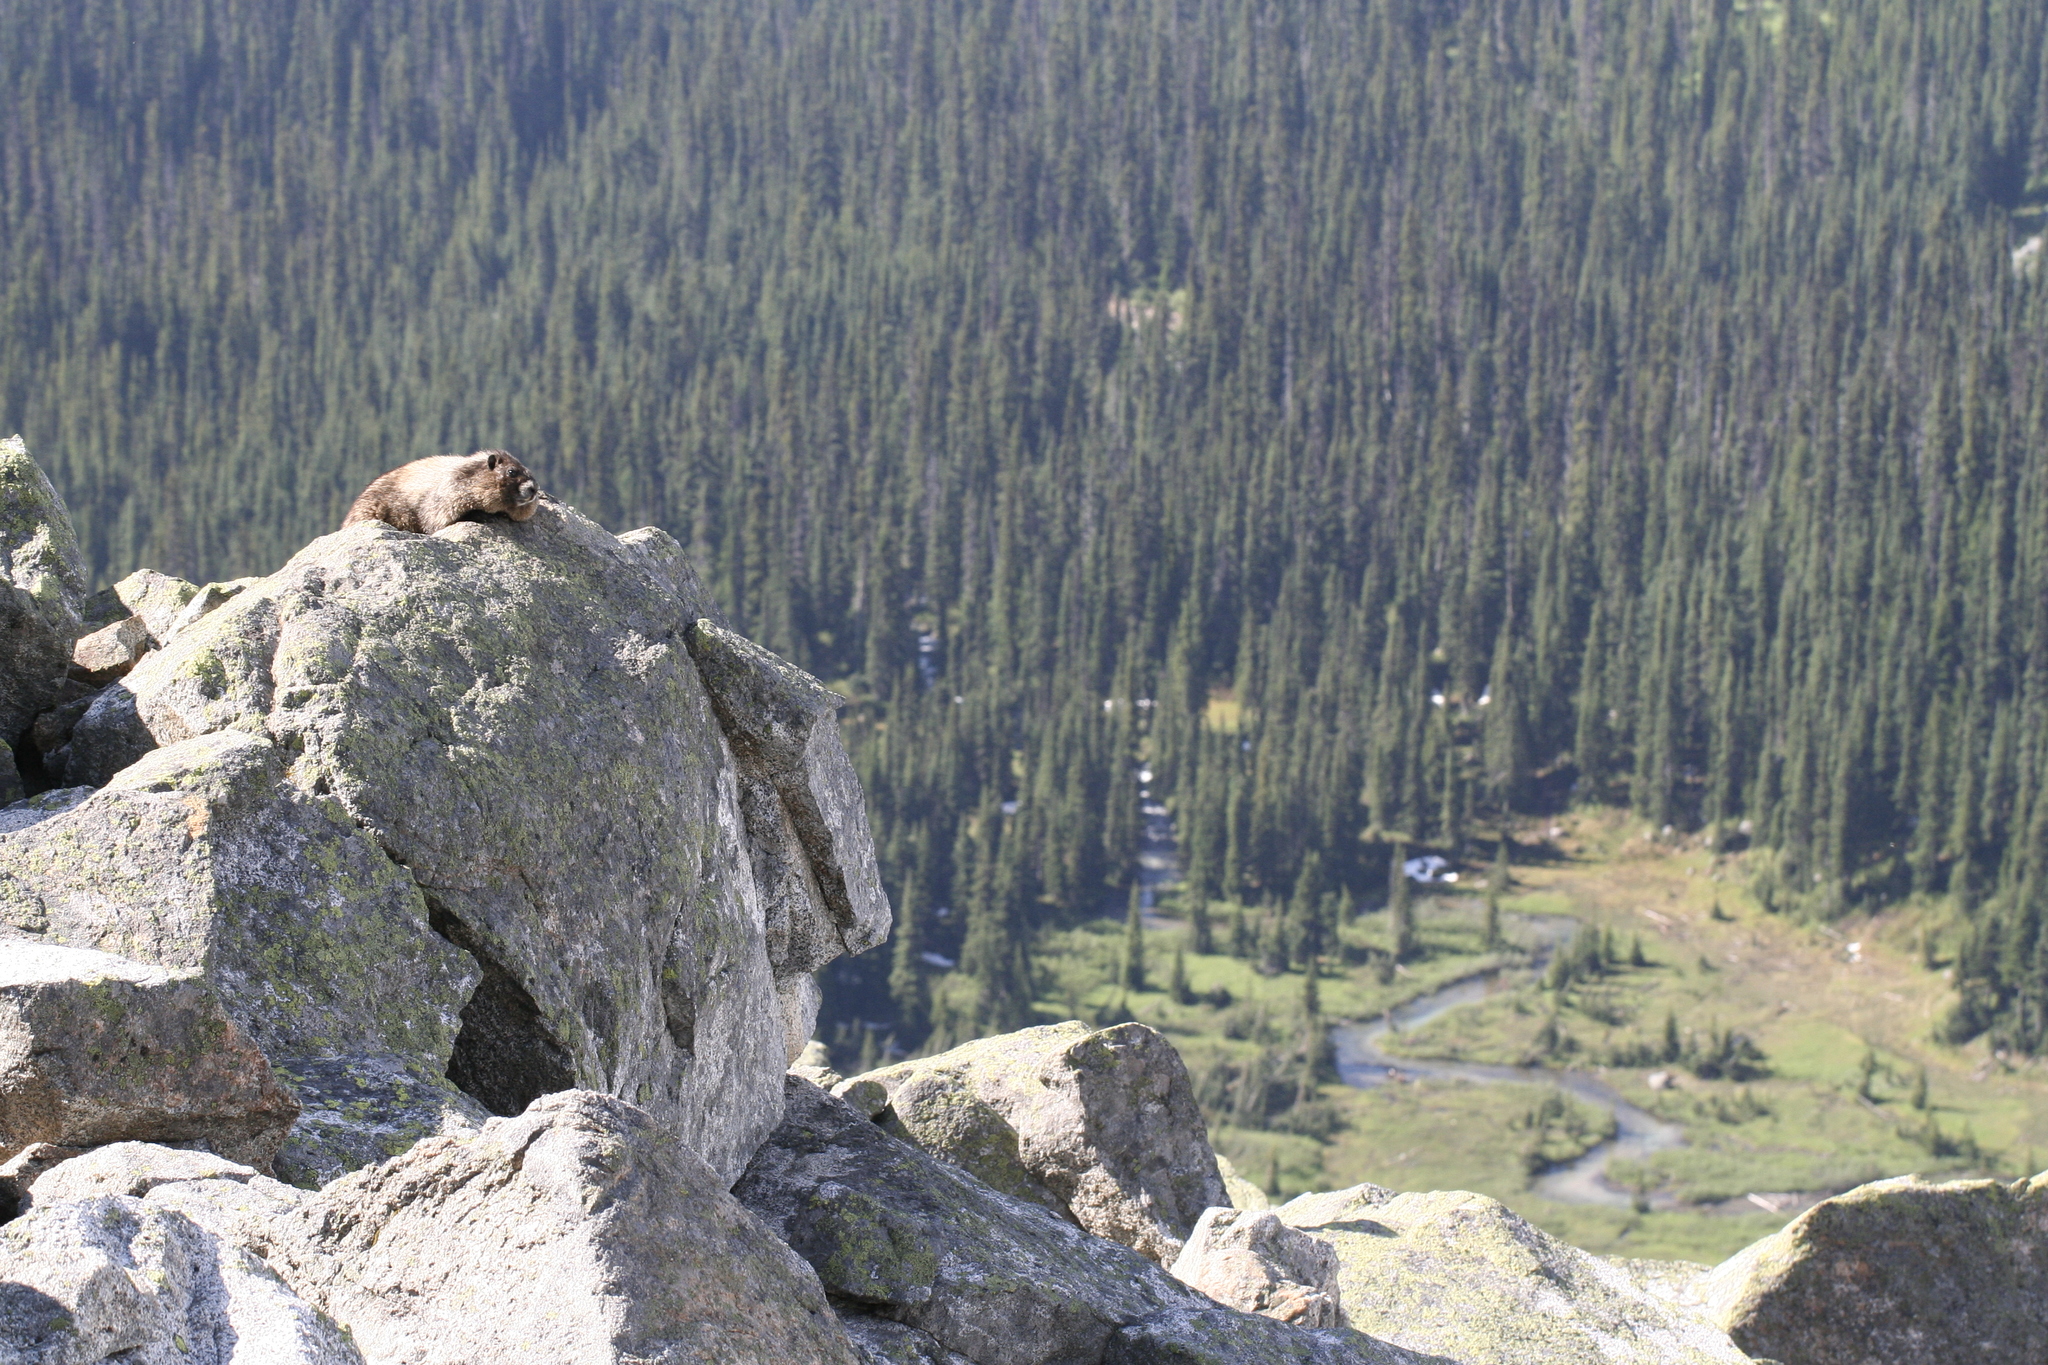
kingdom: Animalia
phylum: Chordata
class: Mammalia
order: Rodentia
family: Sciuridae
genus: Marmota
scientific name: Marmota caligata
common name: Hoary marmot
